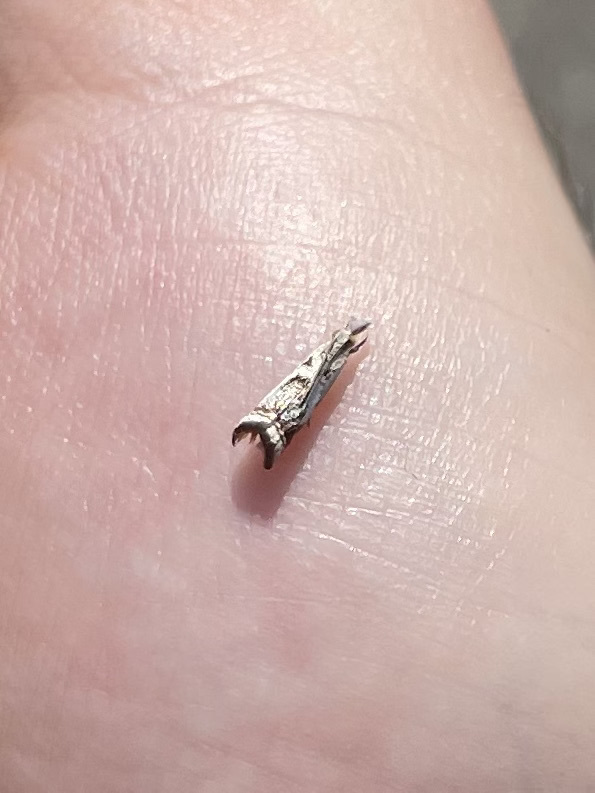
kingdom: Animalia
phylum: Arthropoda
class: Insecta
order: Lepidoptera
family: Crambidae
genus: Microcrambus
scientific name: Microcrambus elegans
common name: Elegant grass-veneer
